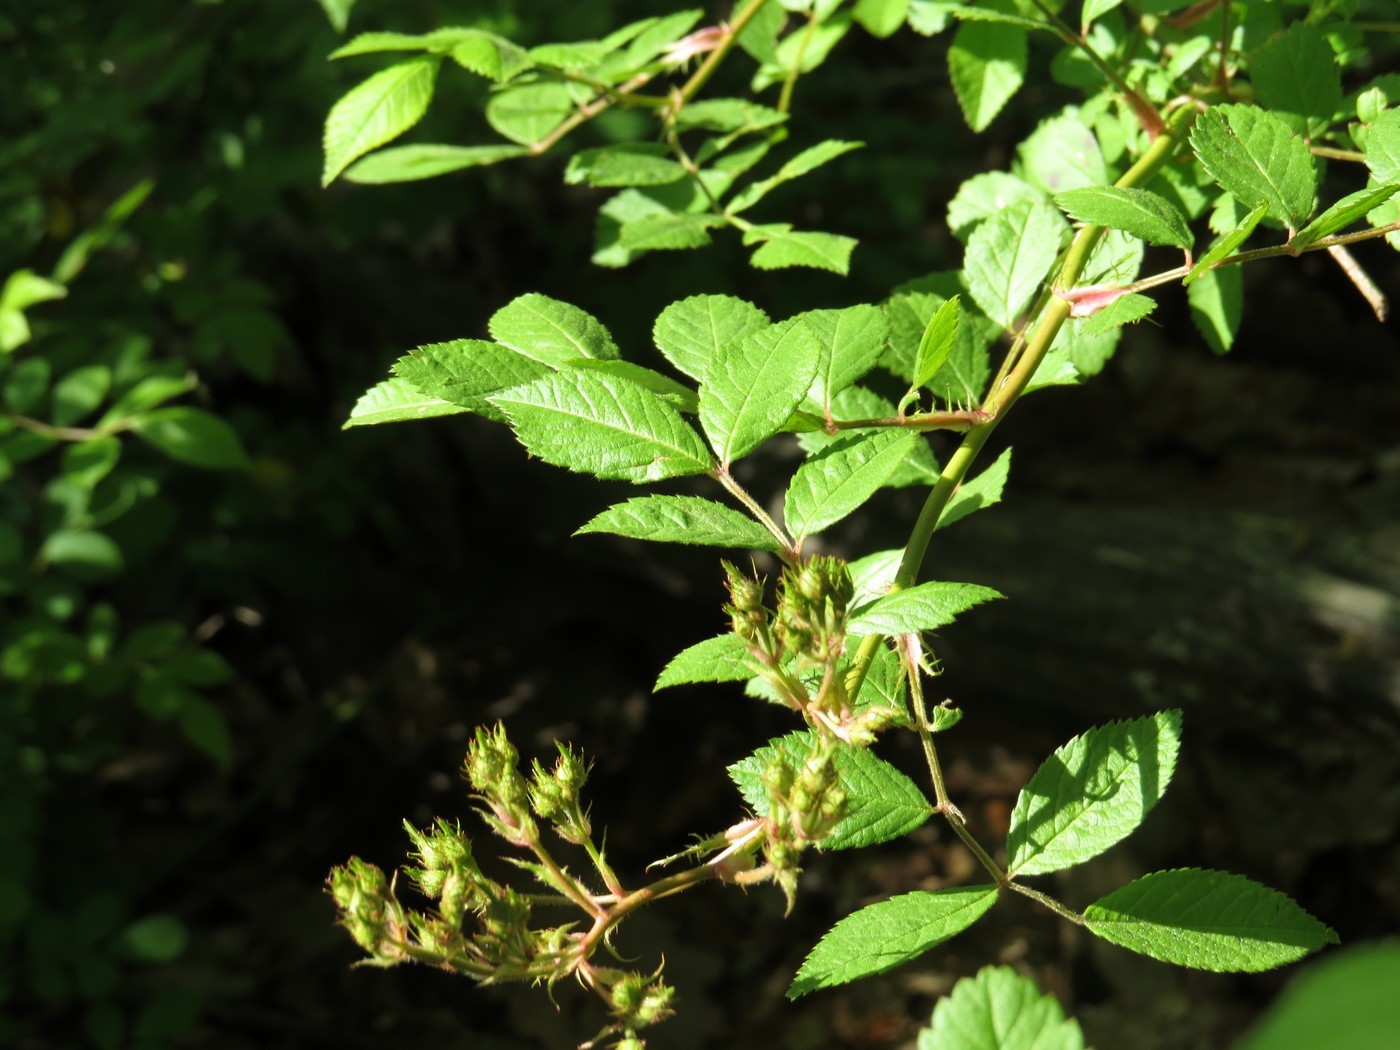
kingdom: Plantae
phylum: Tracheophyta
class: Magnoliopsida
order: Rosales
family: Rosaceae
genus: Rosa
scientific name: Rosa multiflora
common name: Multiflora rose
